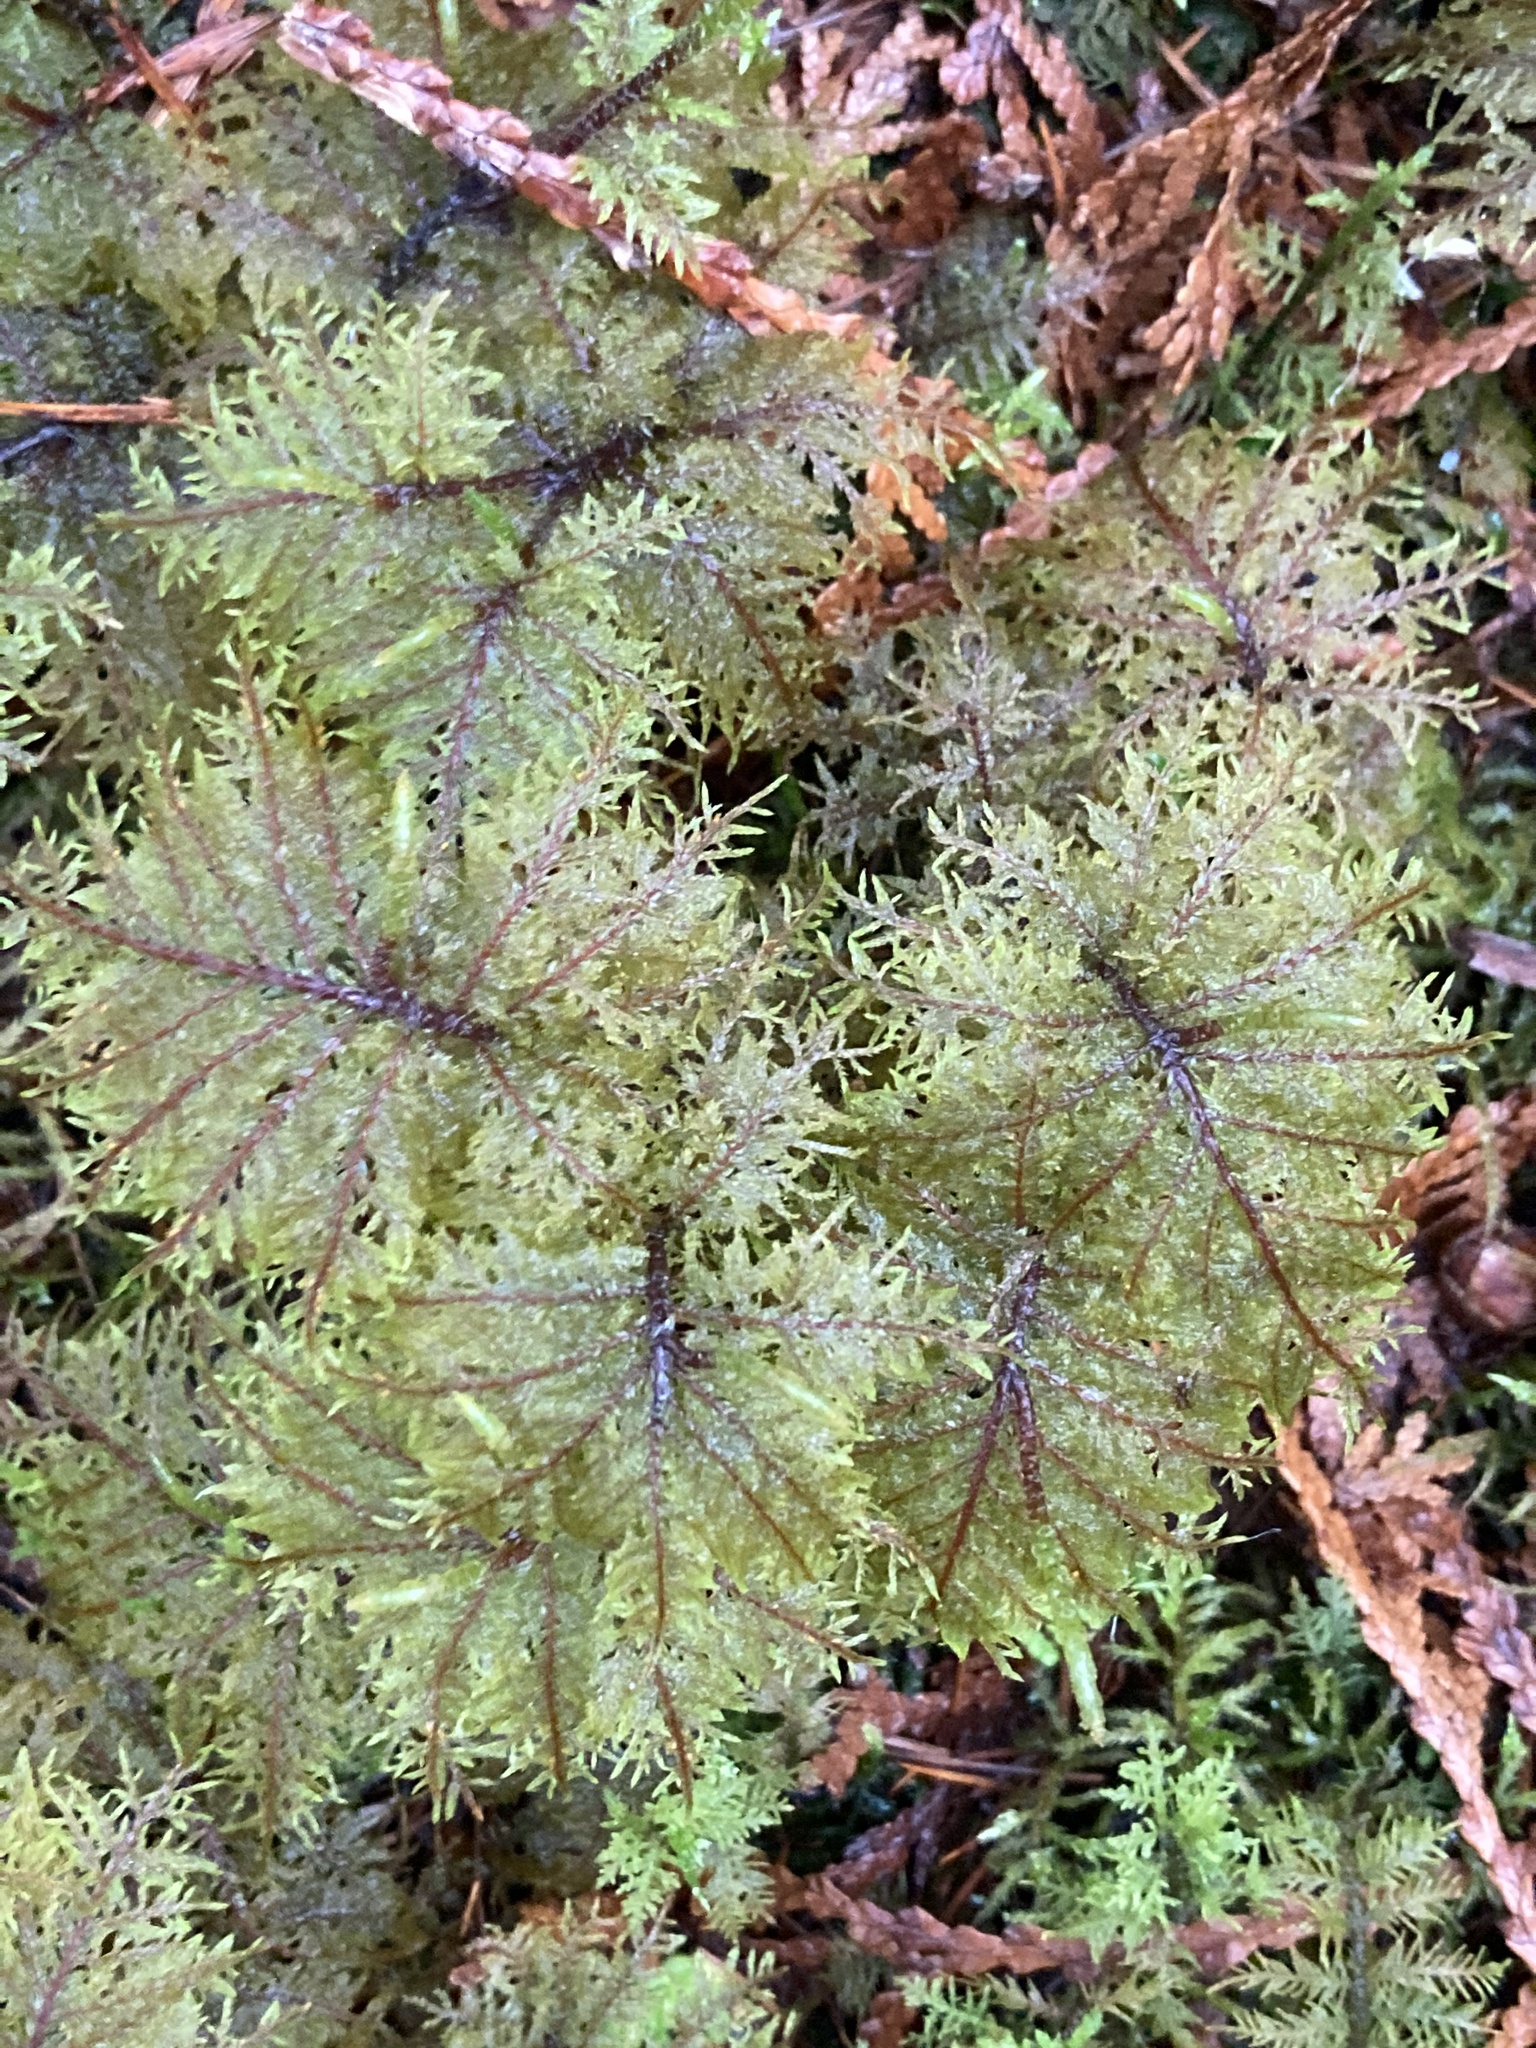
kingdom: Plantae
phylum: Bryophyta
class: Bryopsida
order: Hypnales
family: Hylocomiaceae
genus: Hylocomium
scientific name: Hylocomium splendens
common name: Stairstep moss
